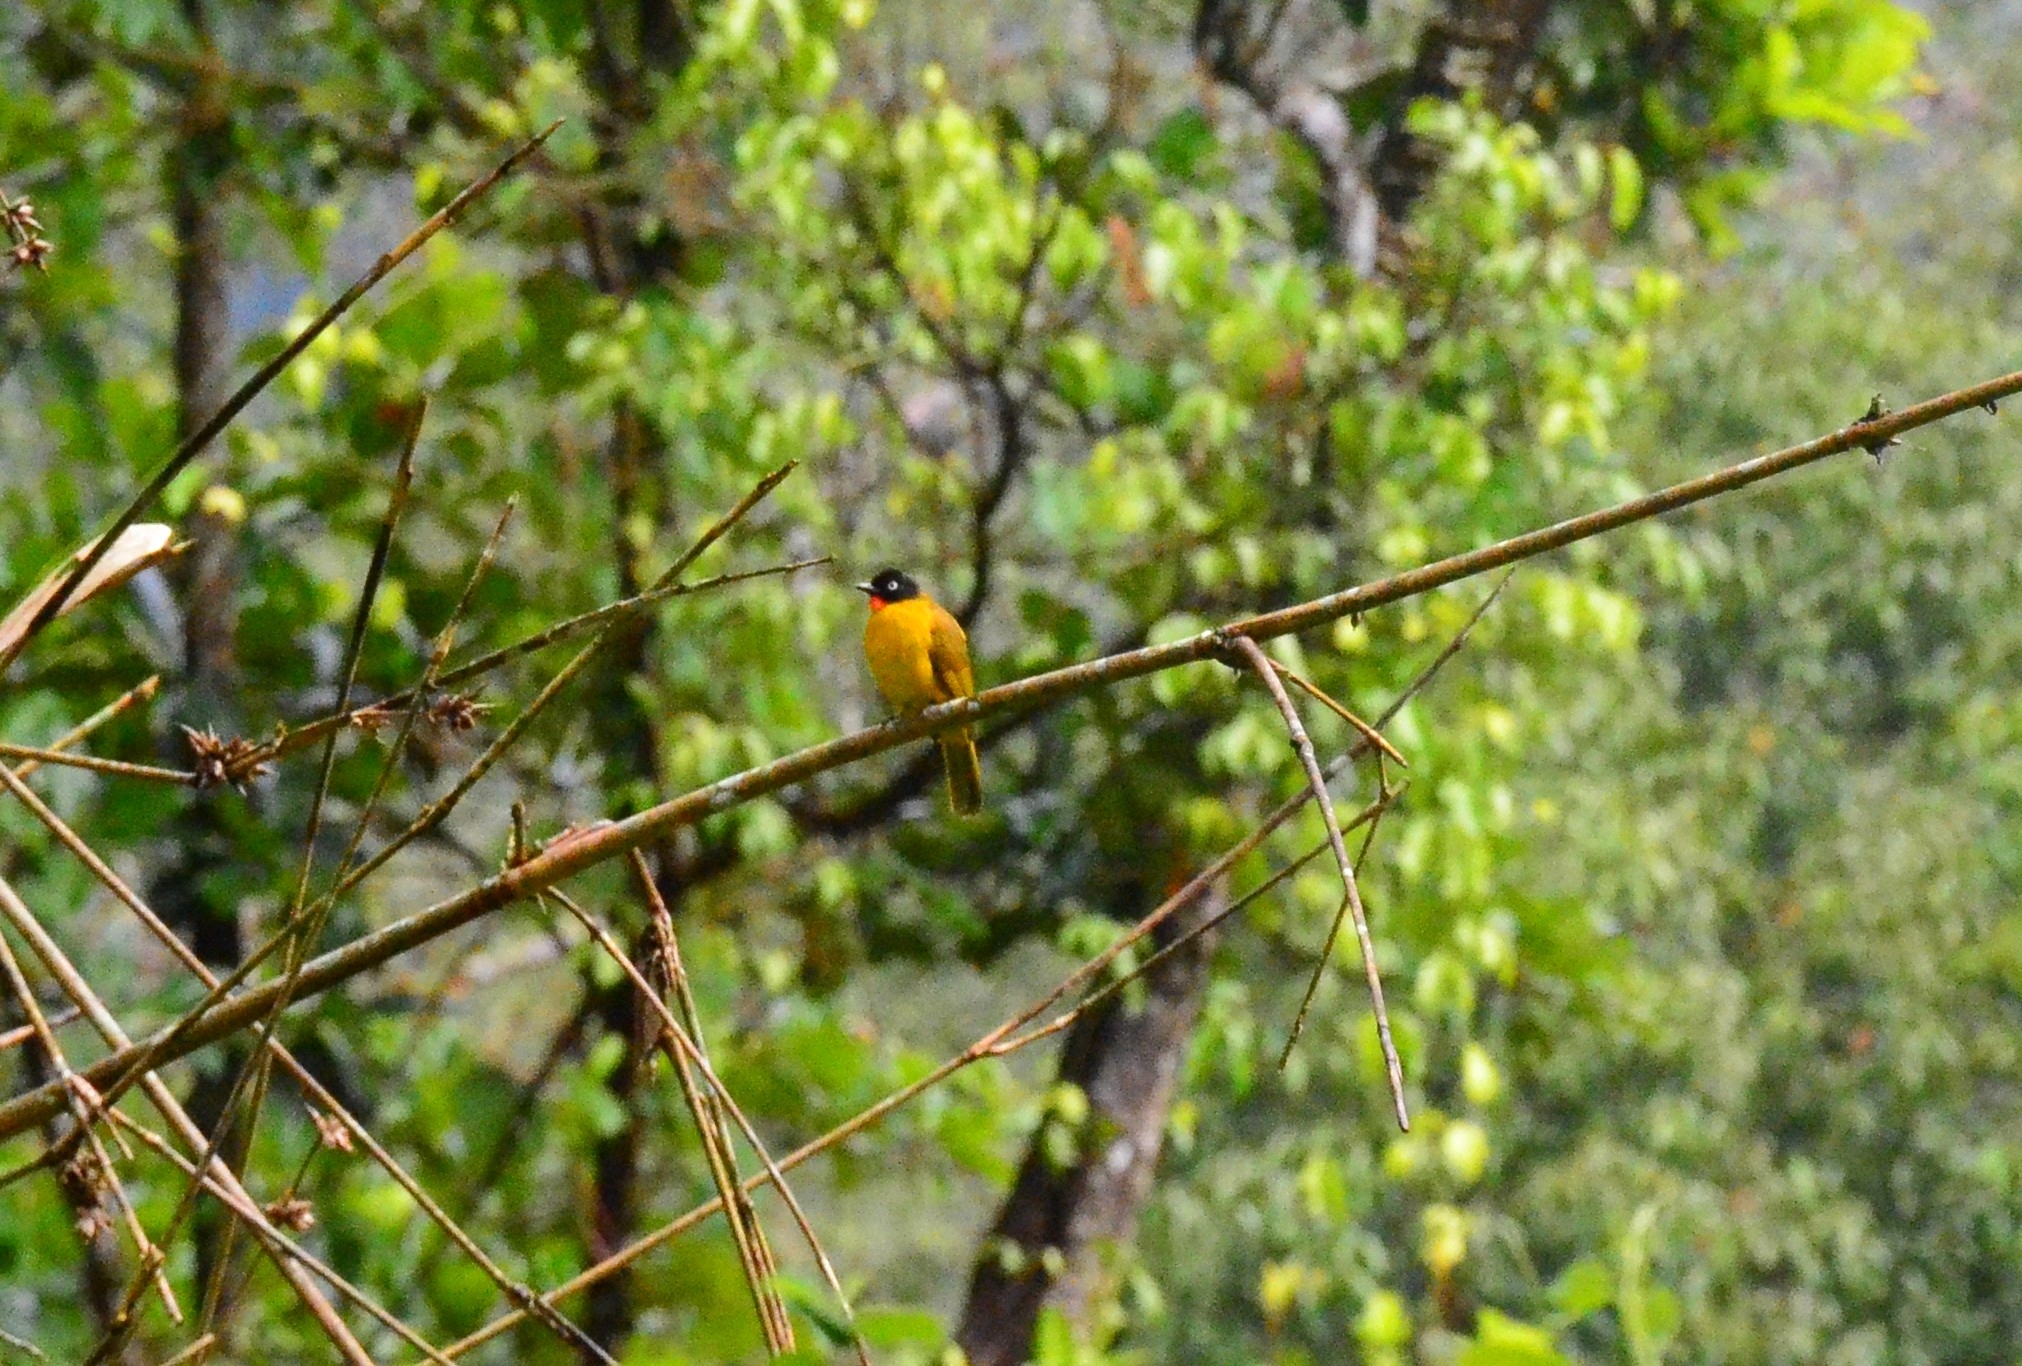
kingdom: Animalia
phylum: Chordata
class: Aves
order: Passeriformes
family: Pycnonotidae
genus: Pycnonotus
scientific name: Pycnonotus gularis
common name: Flame-throated bulbul
